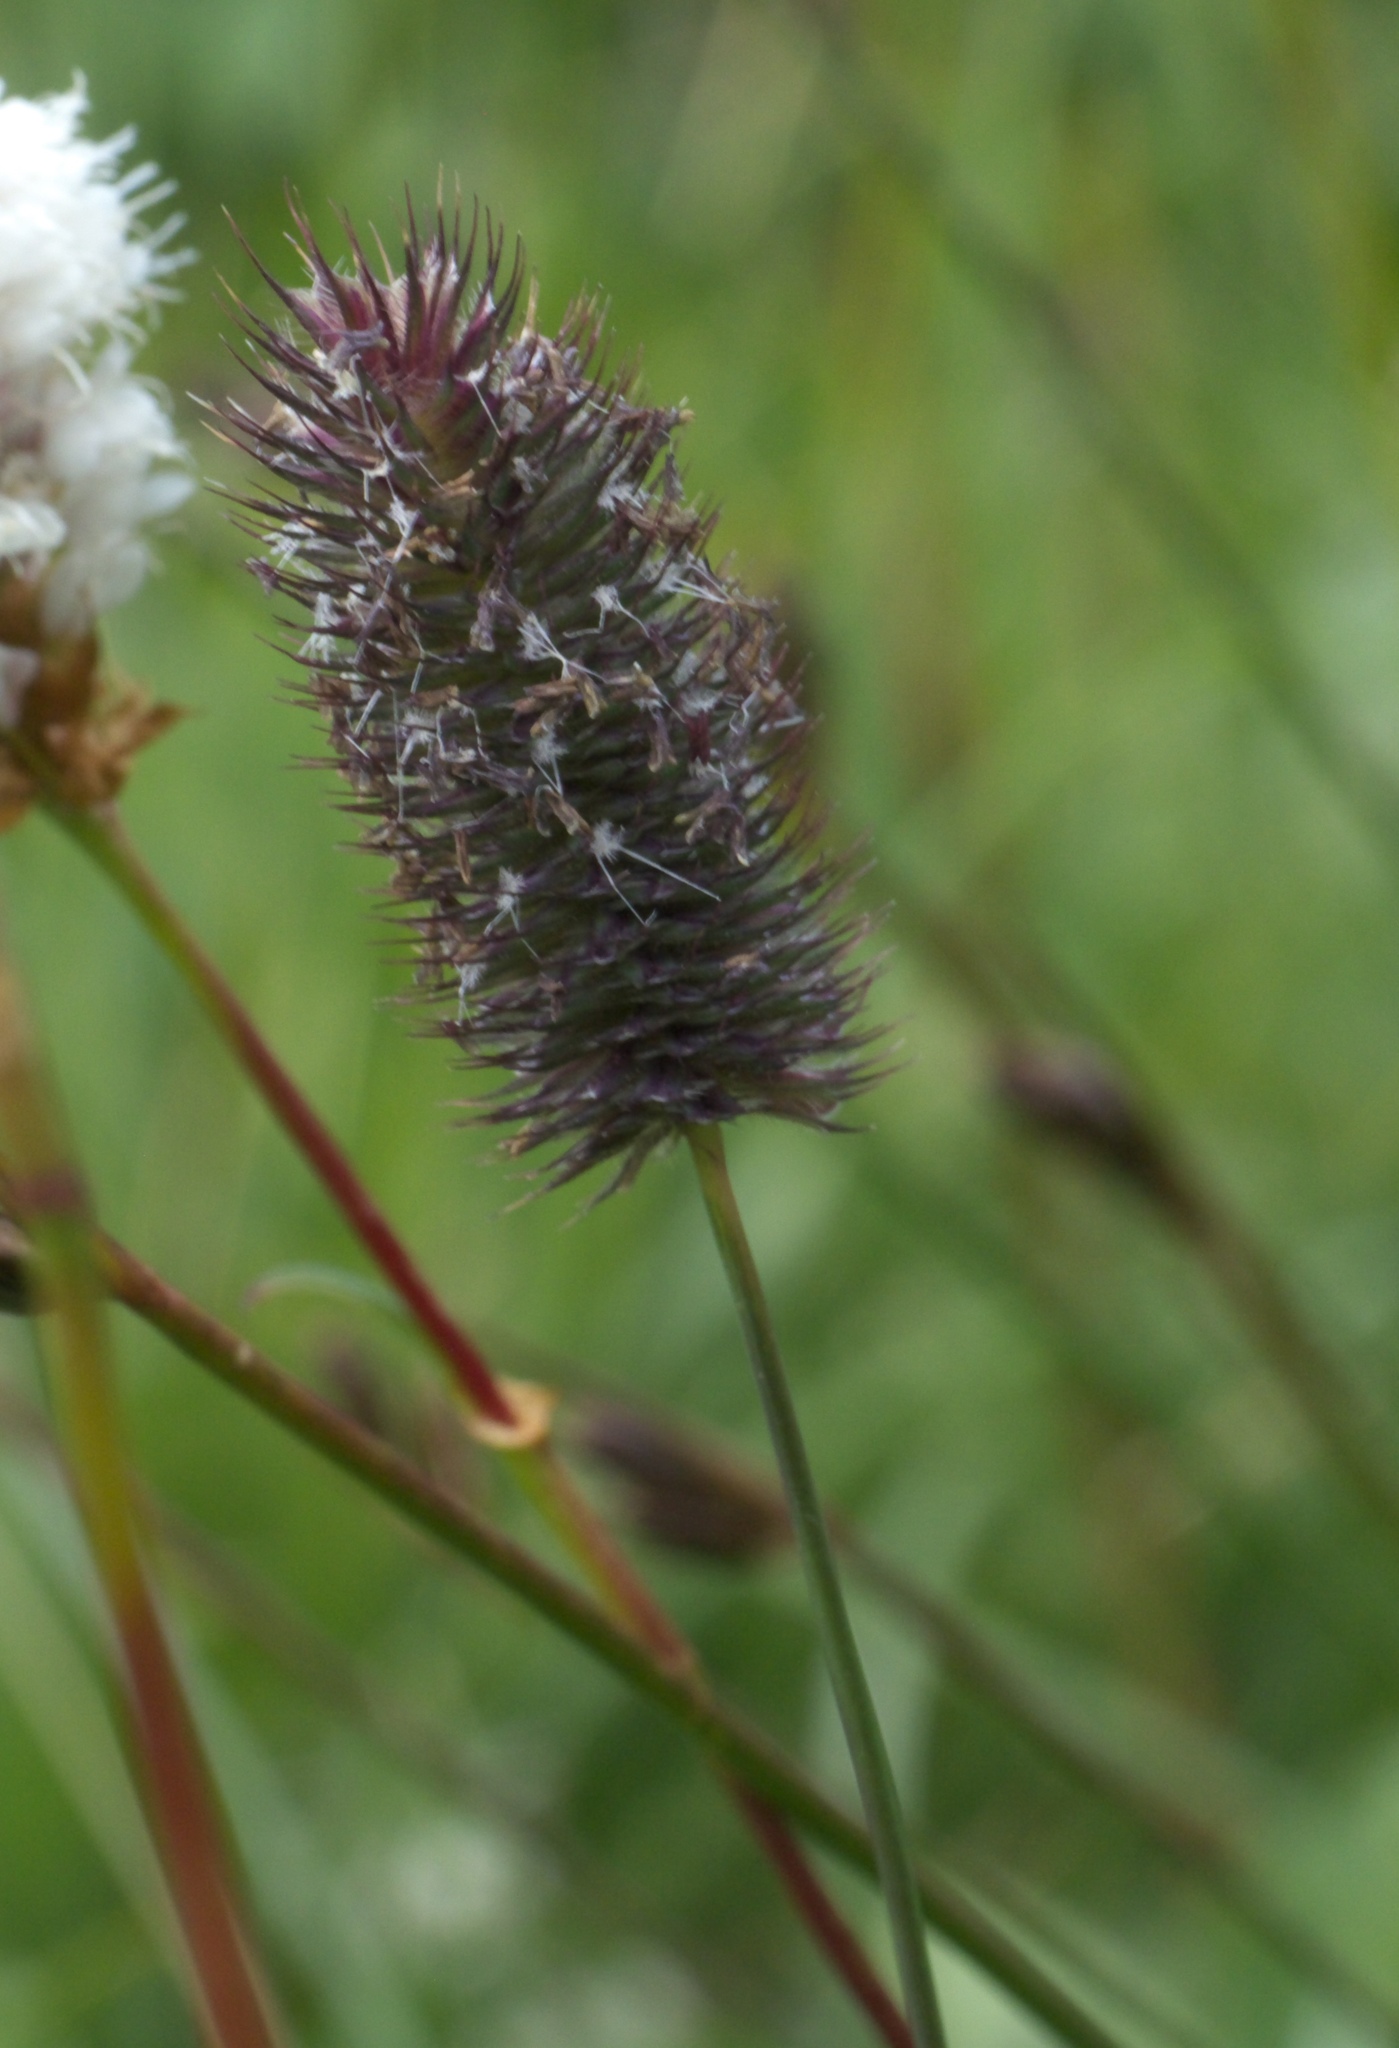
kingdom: Plantae
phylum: Tracheophyta
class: Liliopsida
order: Poales
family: Poaceae
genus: Phleum
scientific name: Phleum alpinum
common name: Alpine cat's-tail
